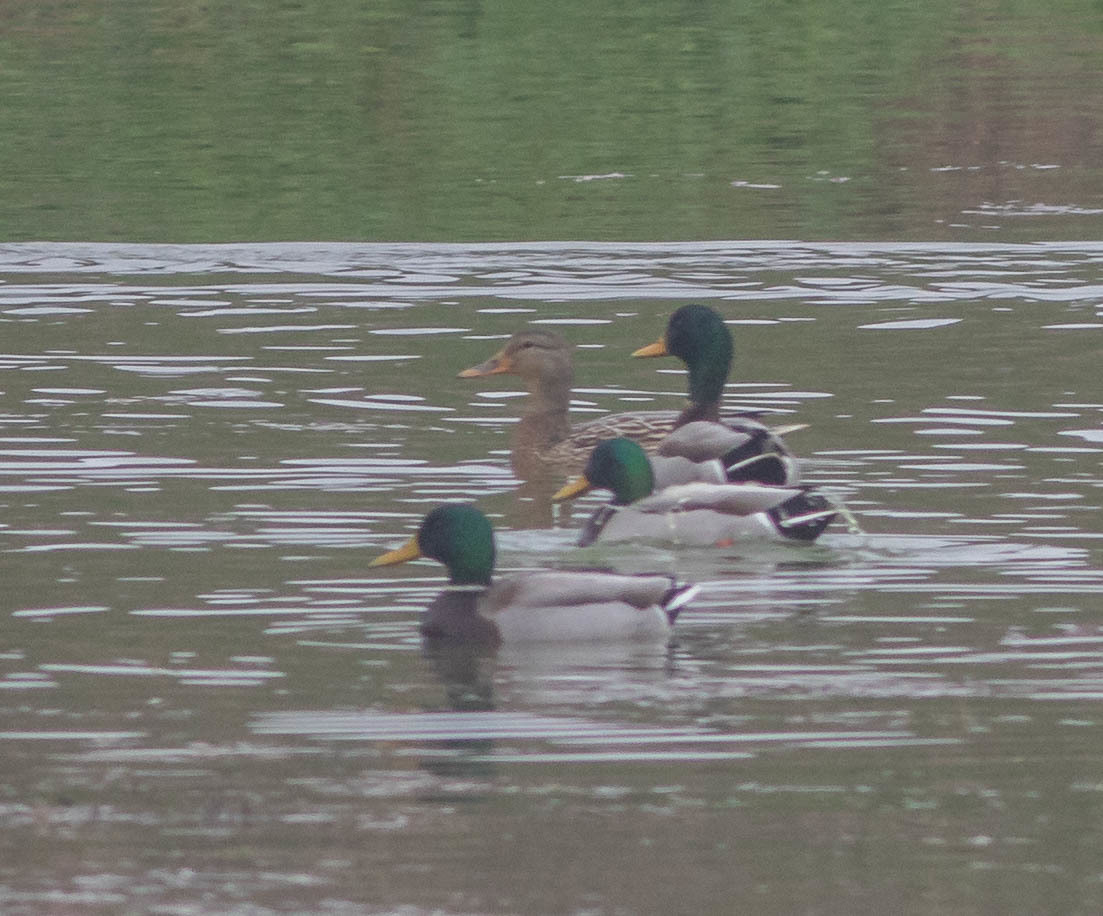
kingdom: Animalia
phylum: Chordata
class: Aves
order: Anseriformes
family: Anatidae
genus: Anas
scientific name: Anas platyrhynchos
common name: Mallard
